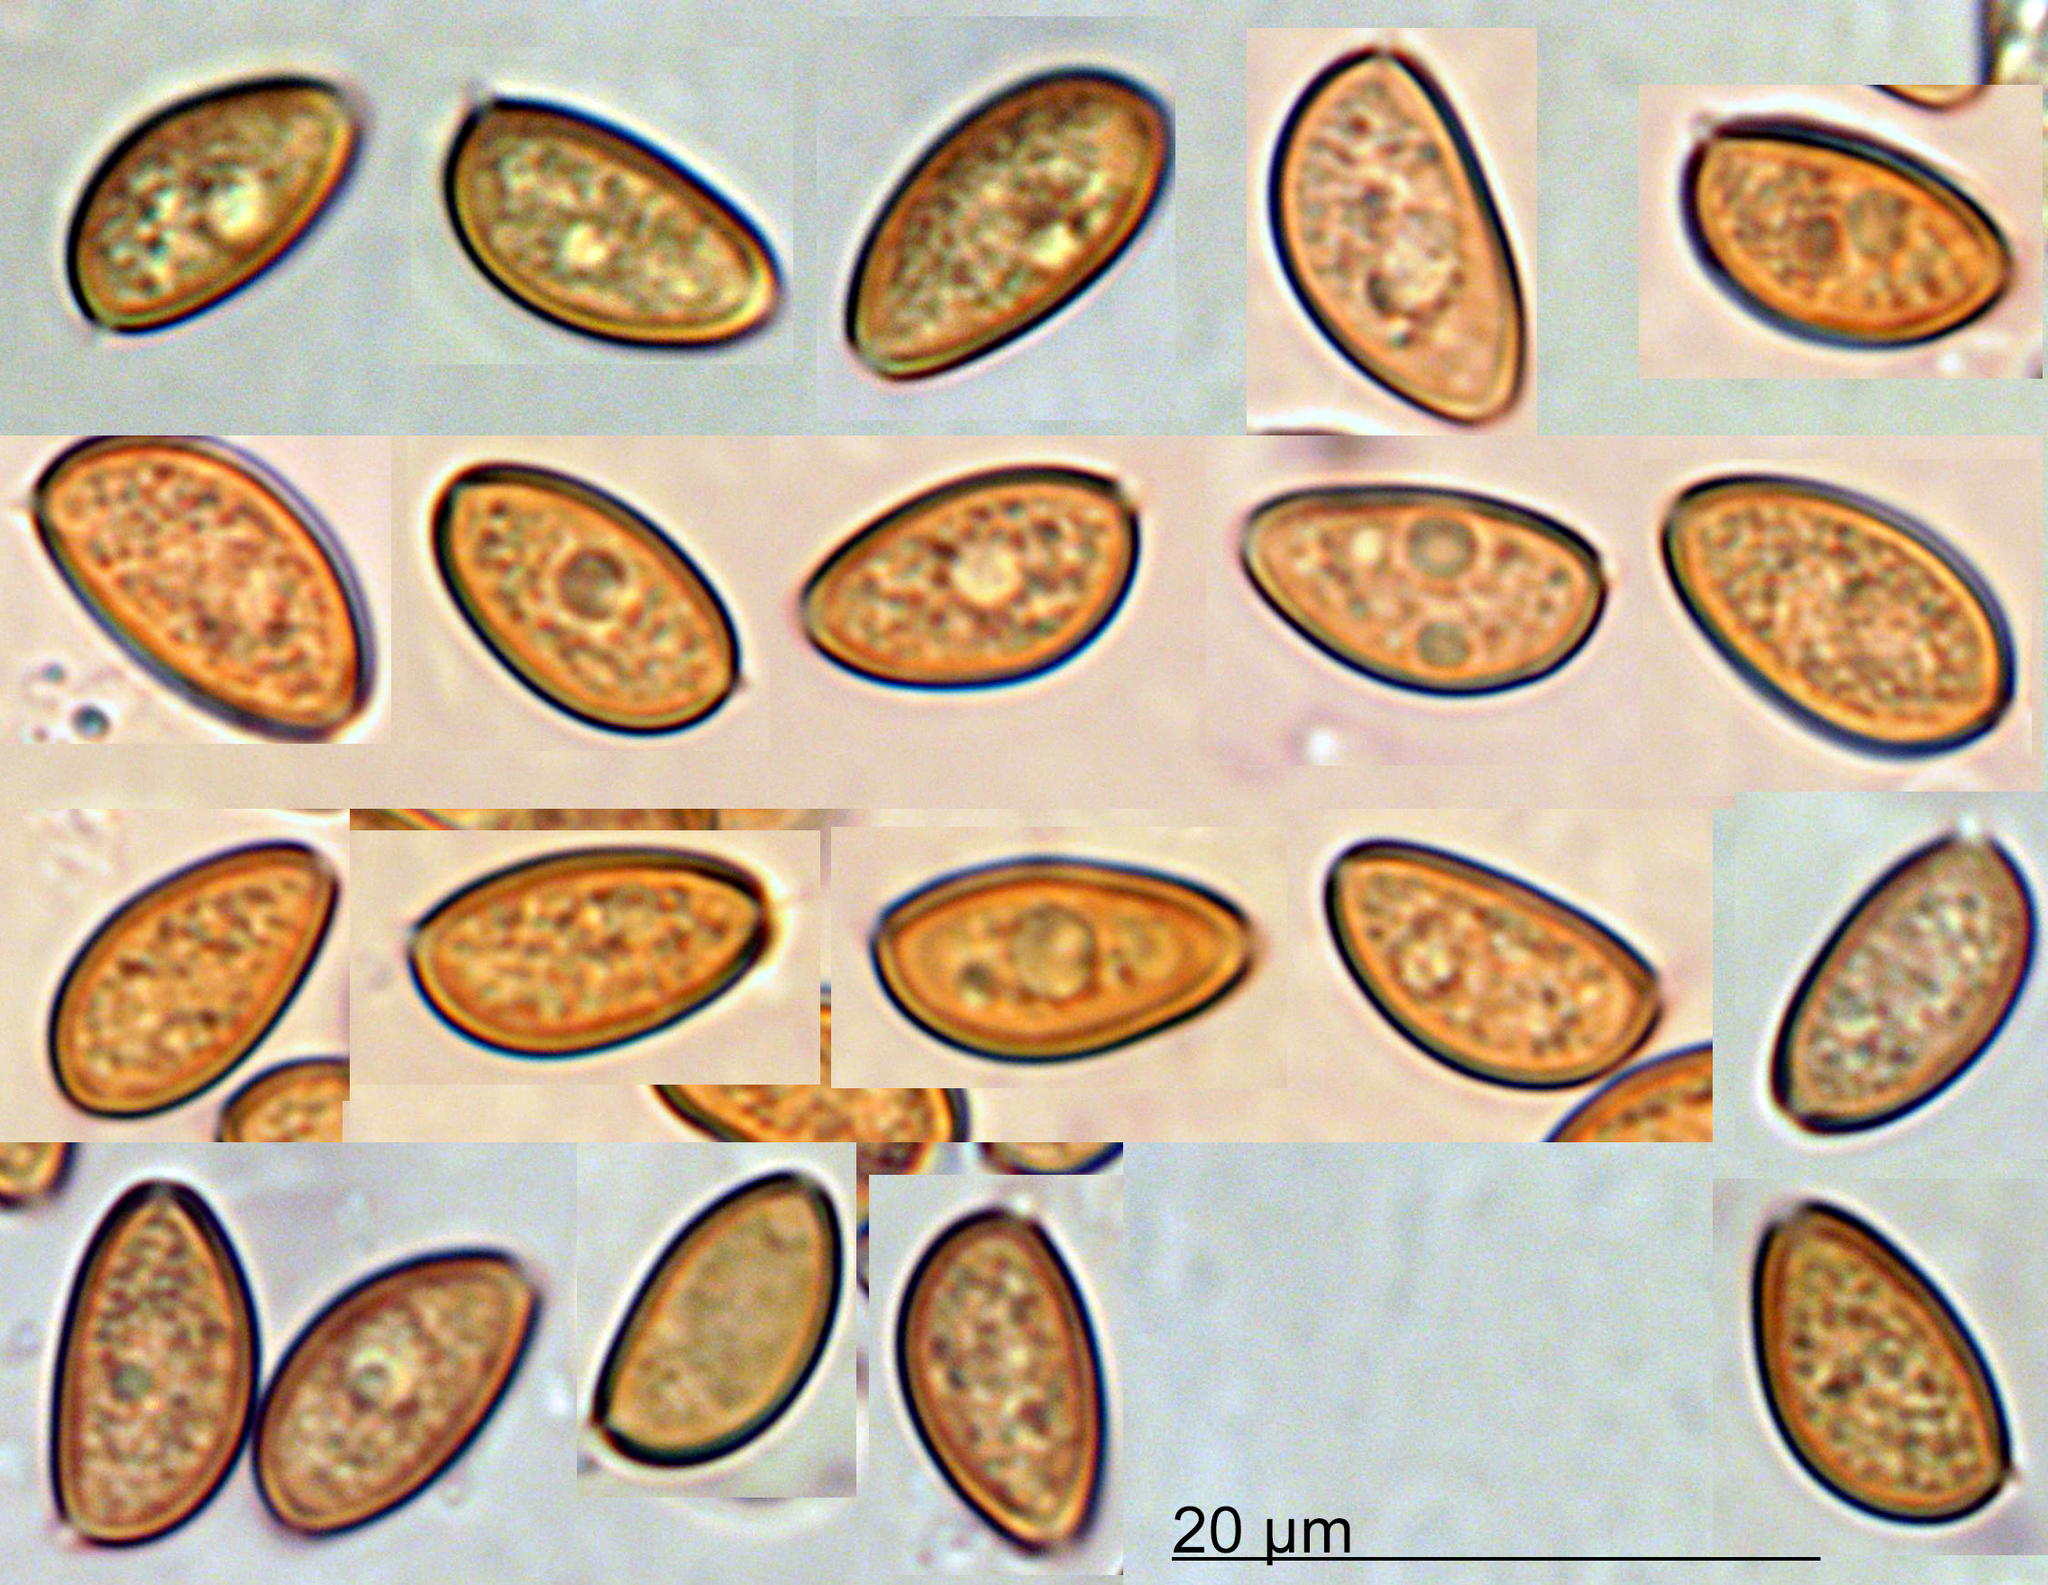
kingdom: Fungi
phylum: Basidiomycota
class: Agaricomycetes
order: Agaricales
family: Strophariaceae
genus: Protostropharia
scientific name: Protostropharia
